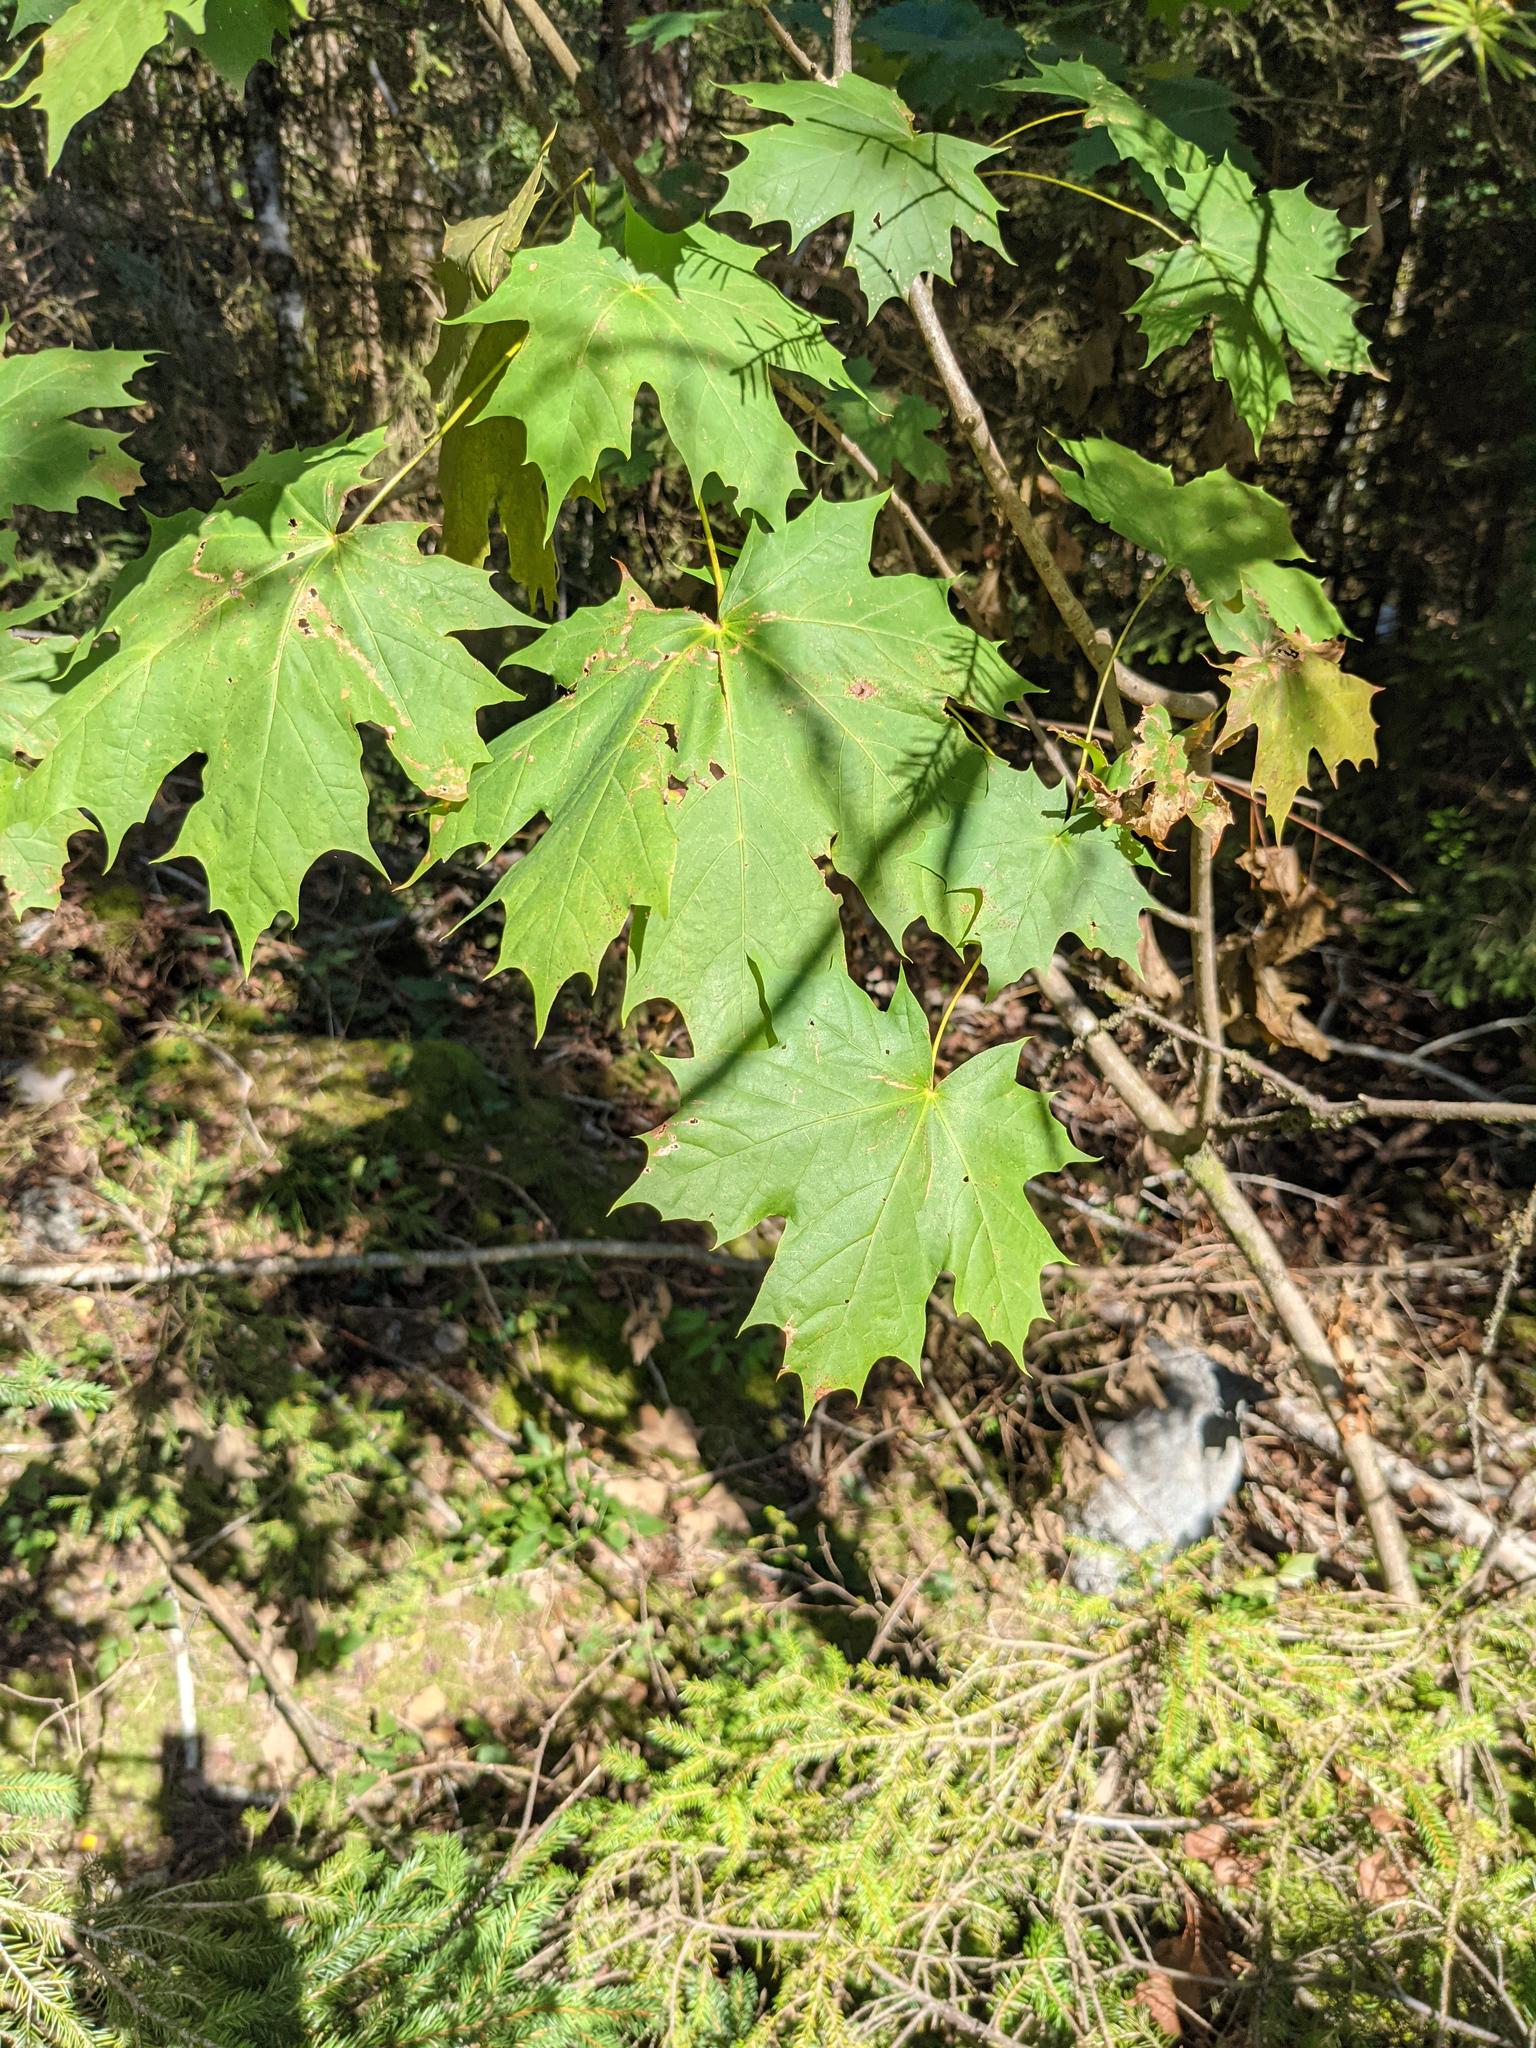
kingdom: Plantae
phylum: Tracheophyta
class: Magnoliopsida
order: Sapindales
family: Sapindaceae
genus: Acer
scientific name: Acer platanoides
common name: Norway maple
